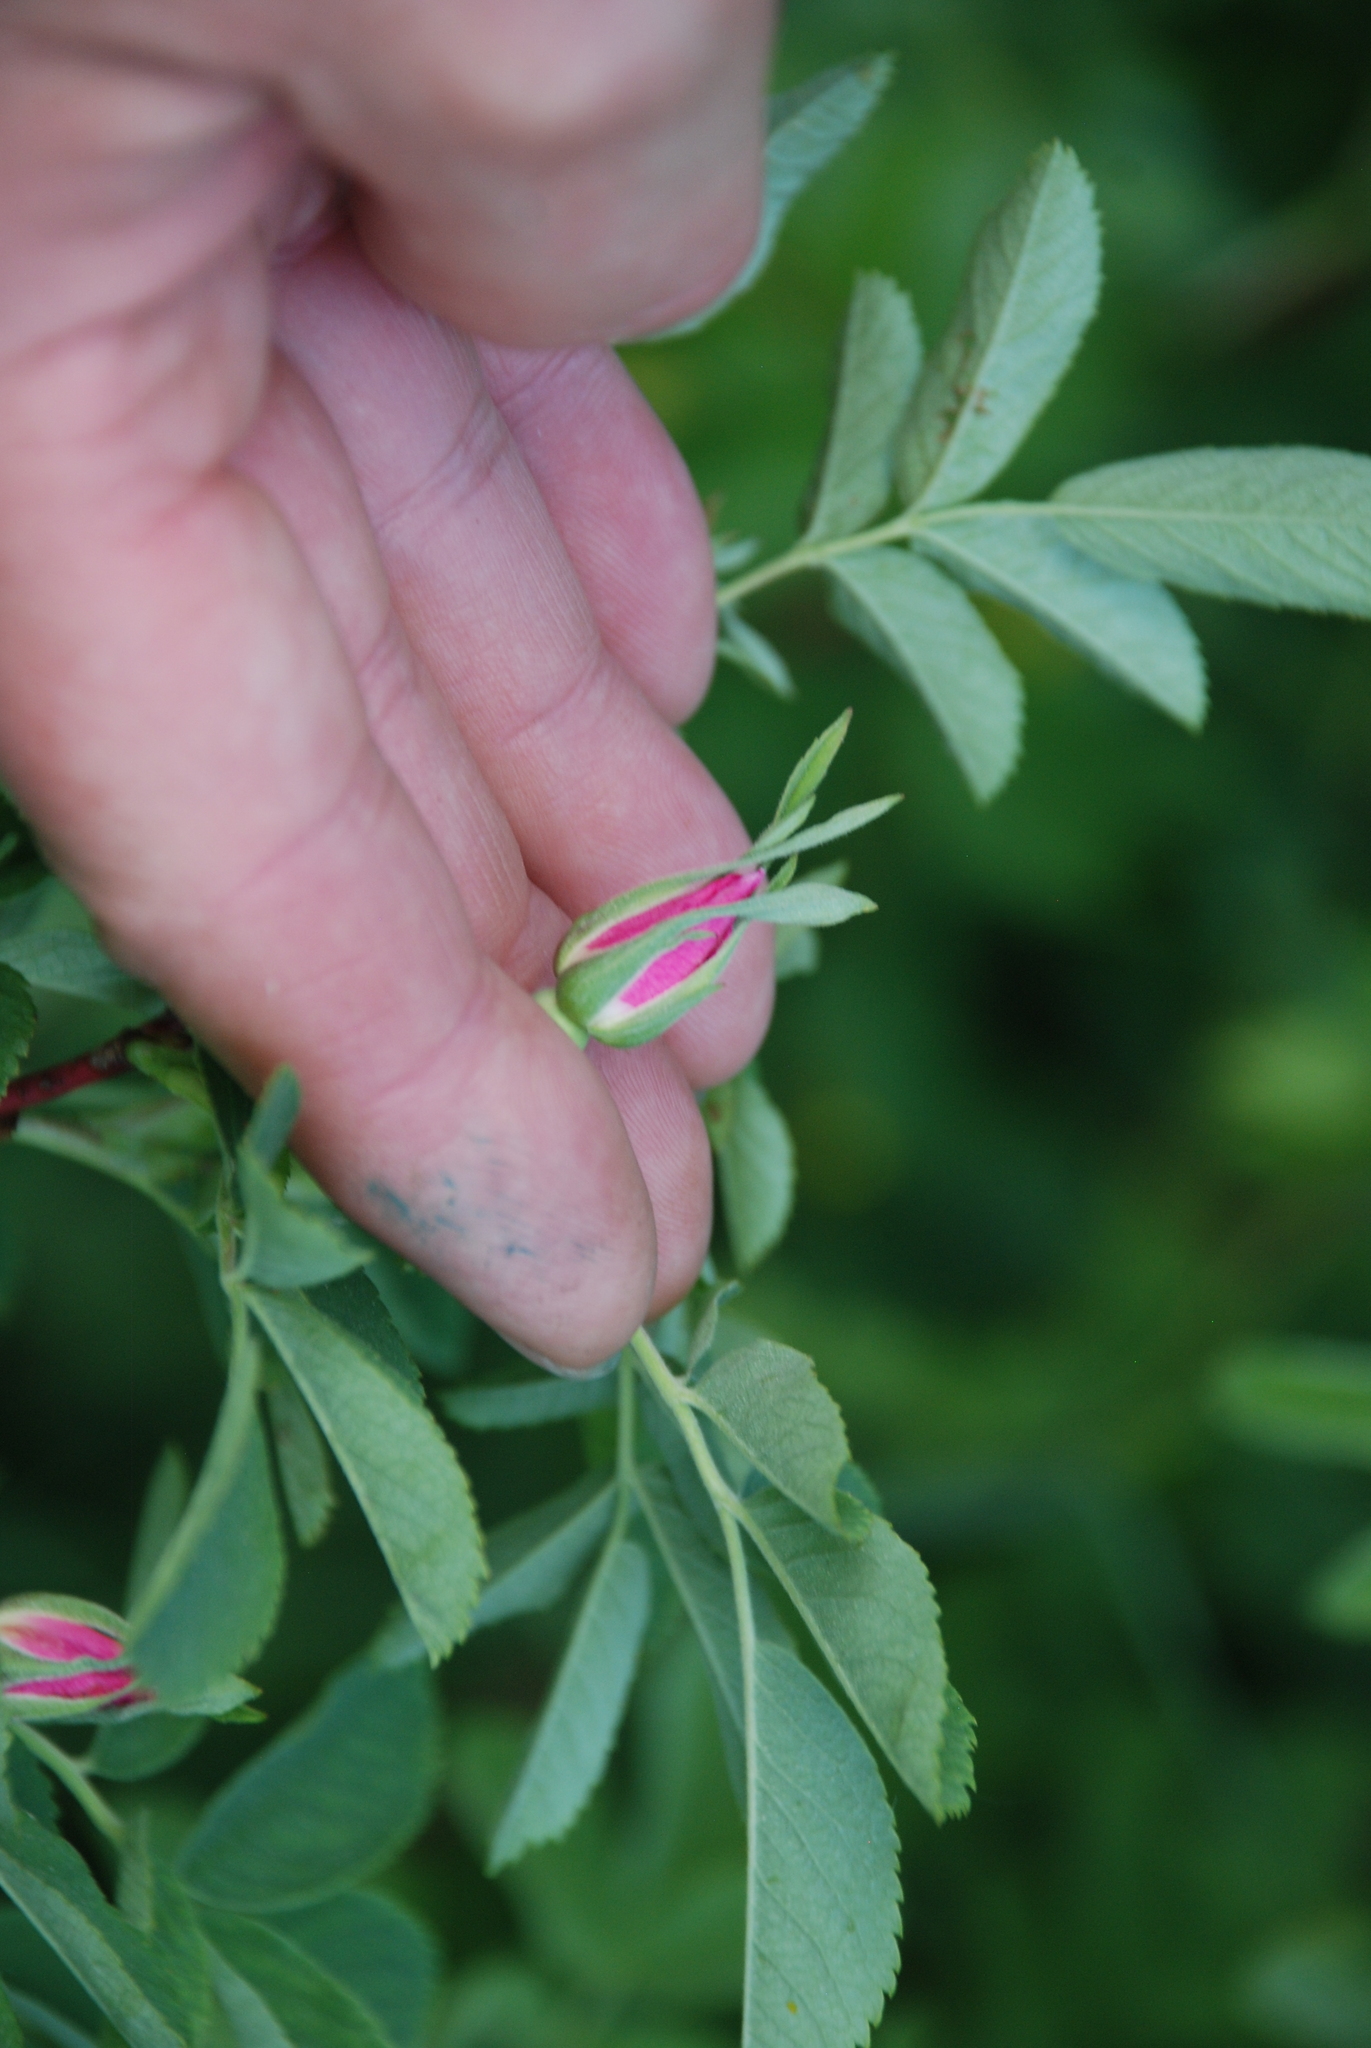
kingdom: Plantae
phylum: Tracheophyta
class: Magnoliopsida
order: Rosales
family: Rosaceae
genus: Rosa
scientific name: Rosa majalis
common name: Cinnamon rose
